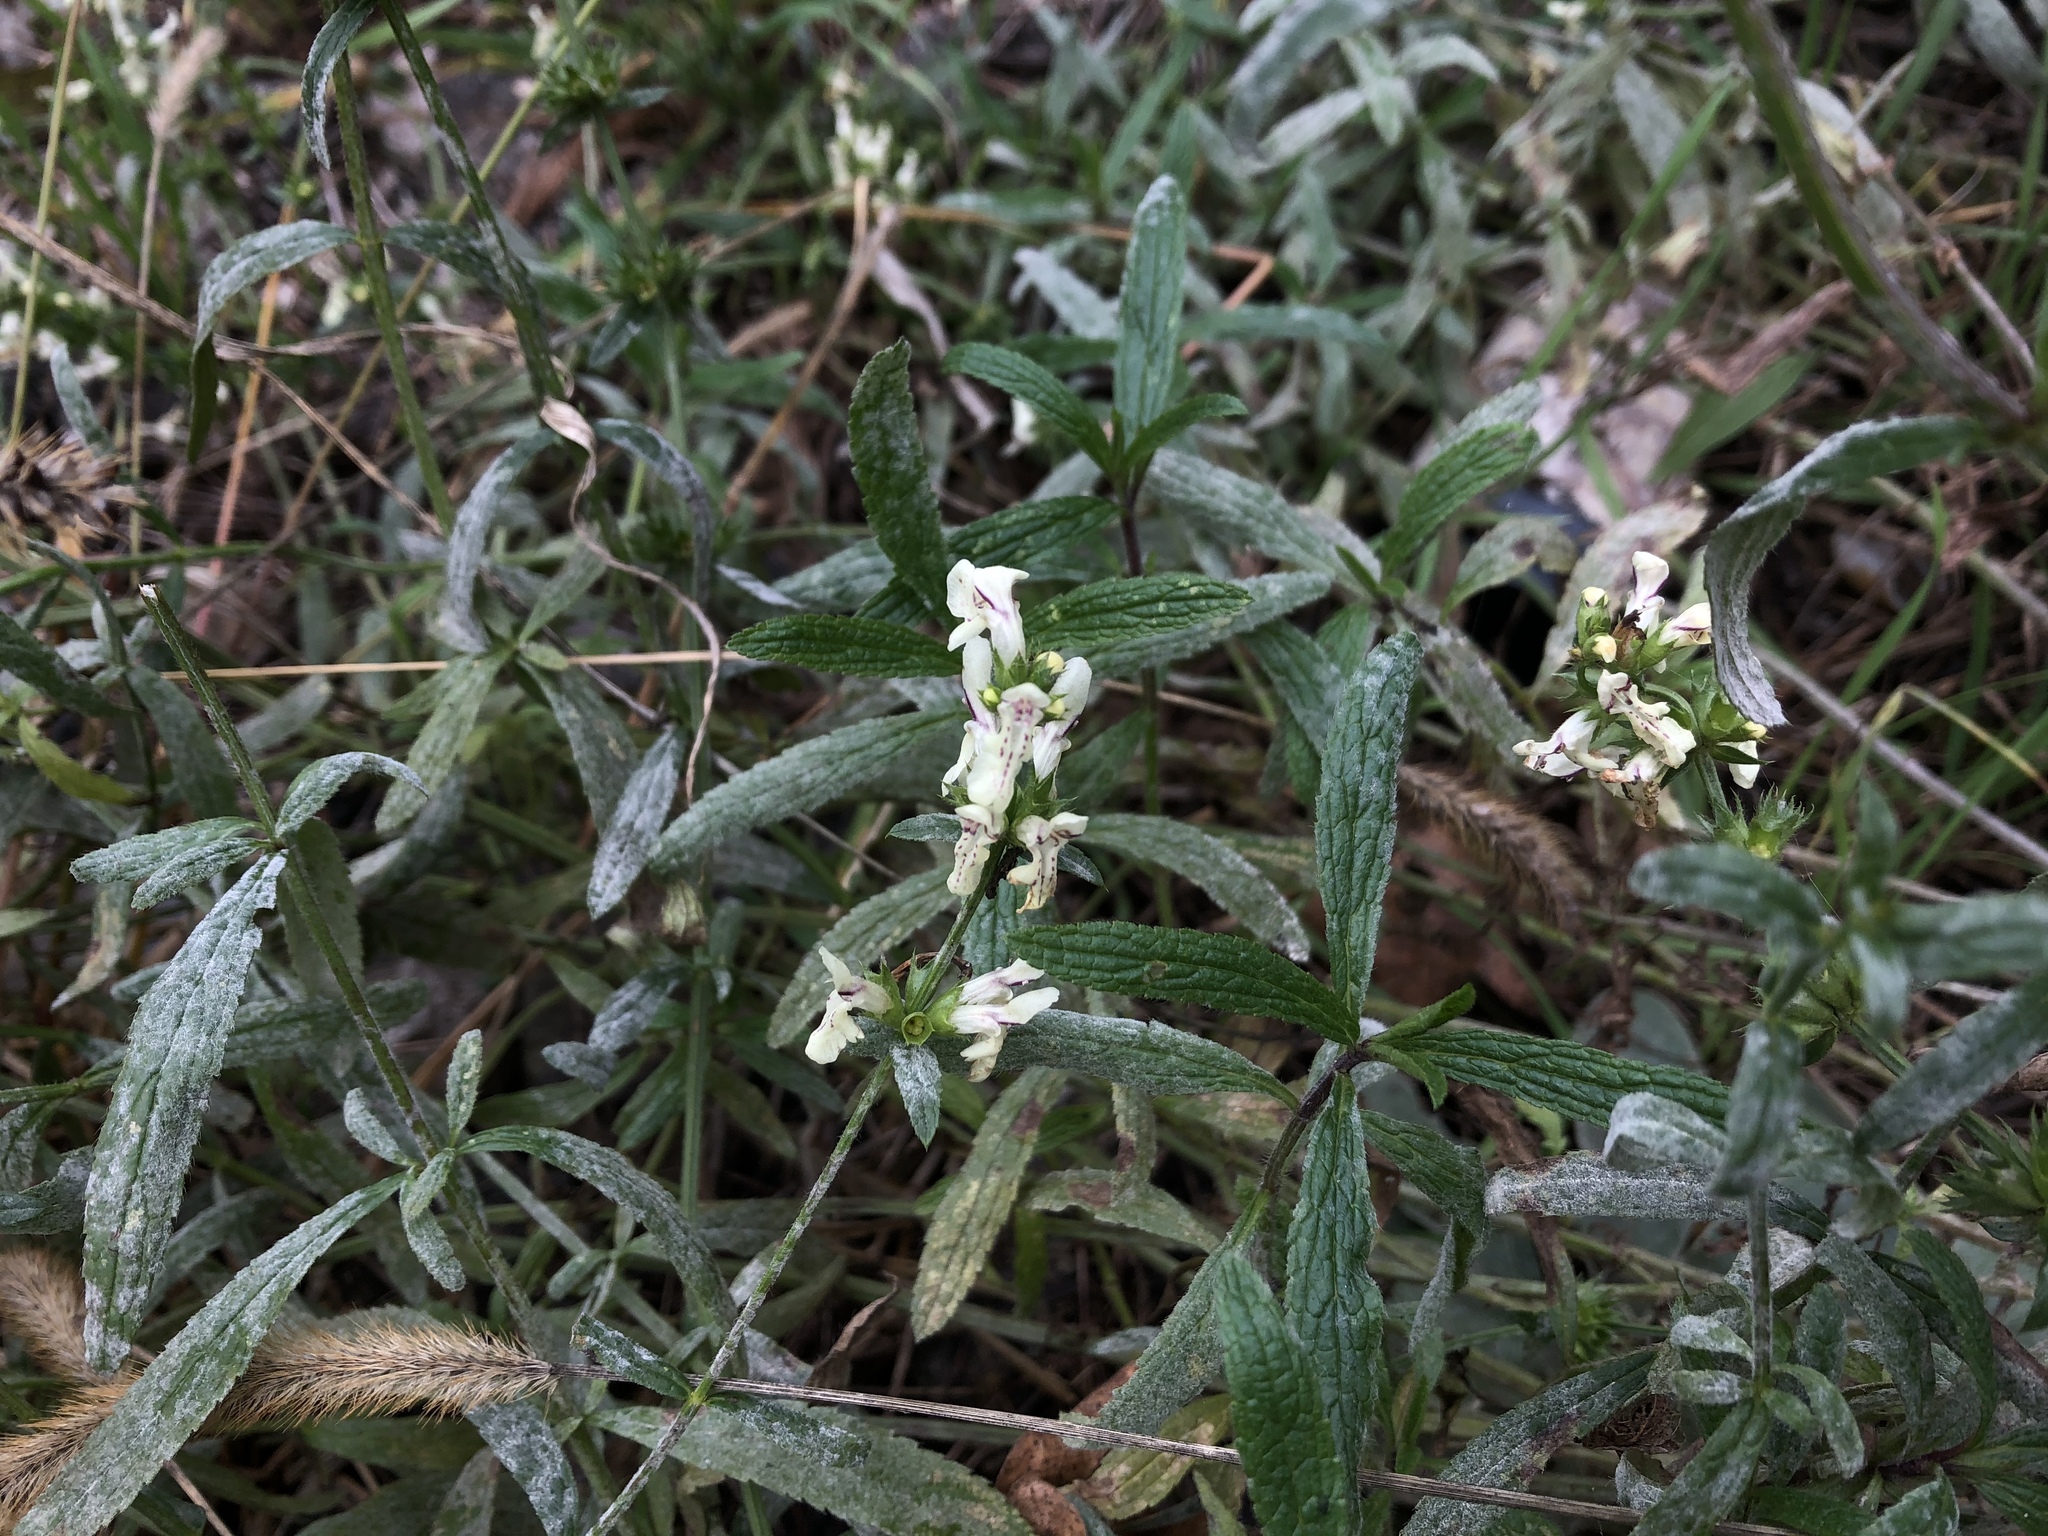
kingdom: Plantae
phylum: Tracheophyta
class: Magnoliopsida
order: Lamiales
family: Lamiaceae
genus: Stachys
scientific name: Stachys recta
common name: Perennial yellow-woundwort
